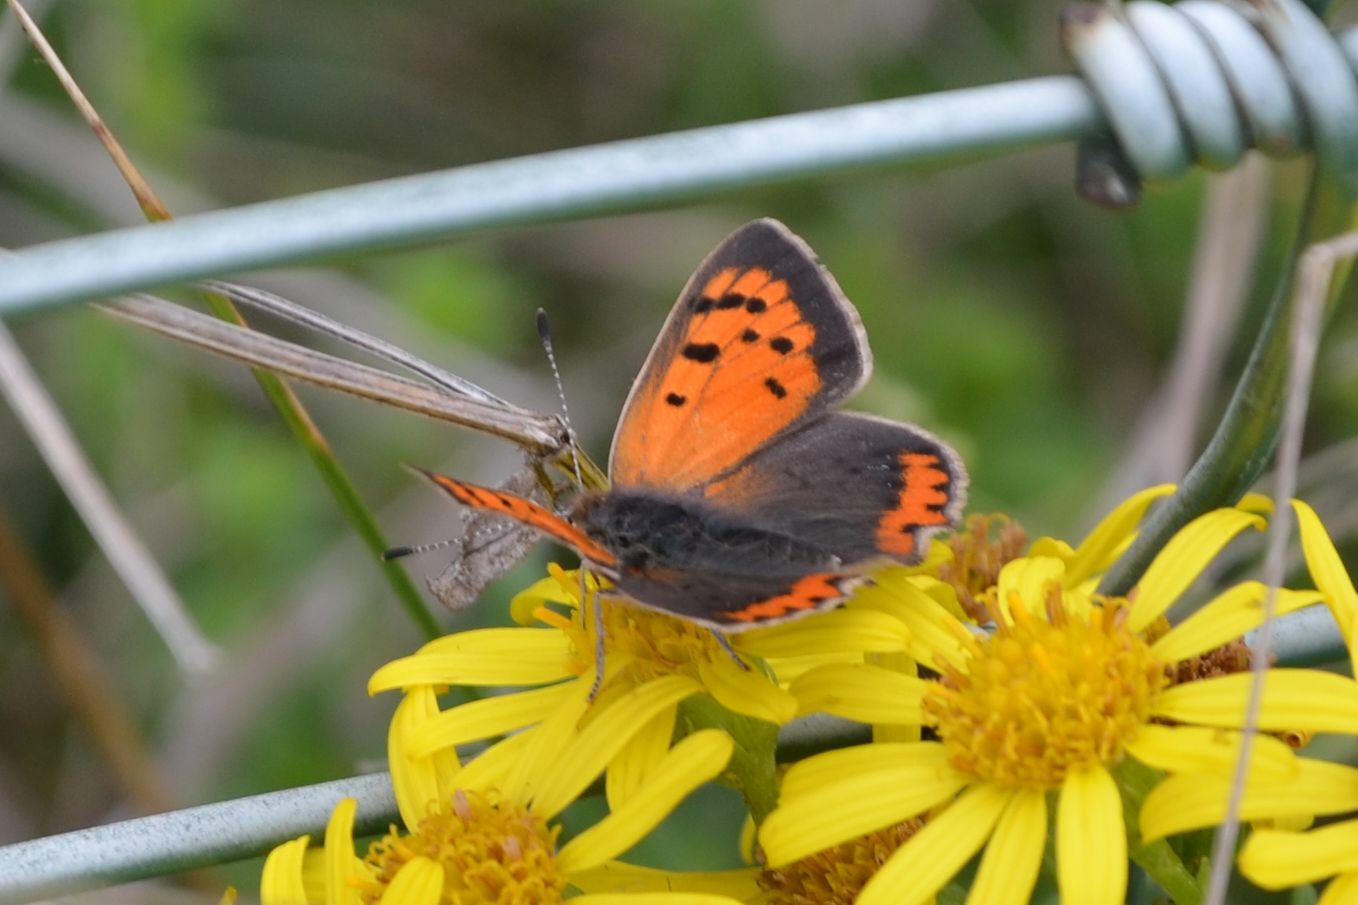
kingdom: Animalia
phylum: Arthropoda
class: Insecta
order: Lepidoptera
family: Lycaenidae
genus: Lycaena
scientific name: Lycaena phlaeas
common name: Small copper
